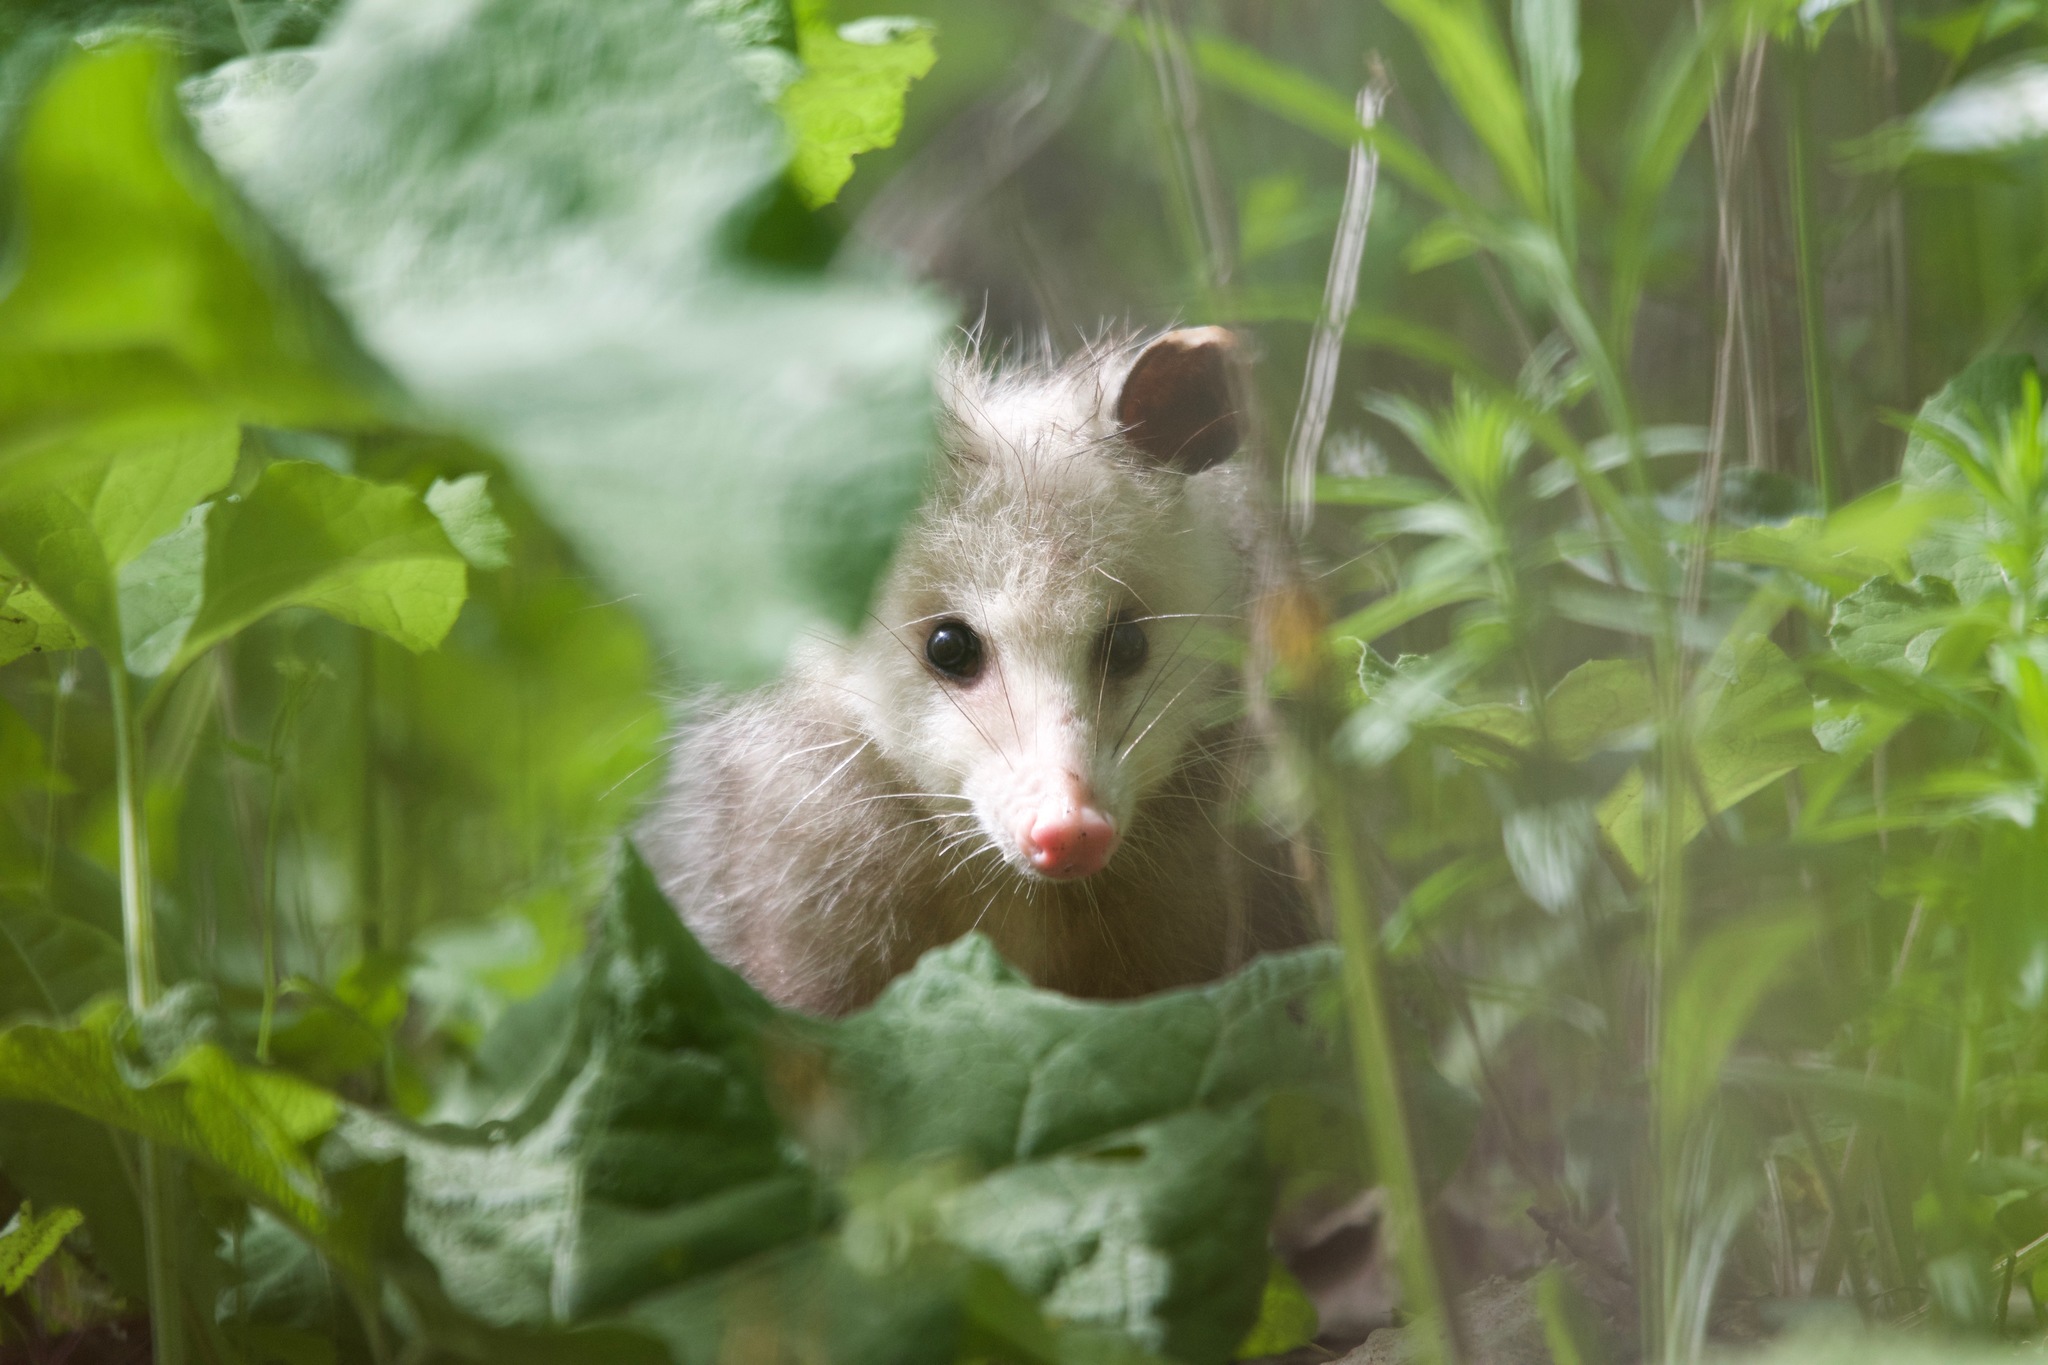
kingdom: Animalia
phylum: Chordata
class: Mammalia
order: Didelphimorphia
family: Didelphidae
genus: Didelphis
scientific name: Didelphis virginiana
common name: Virginia opossum
